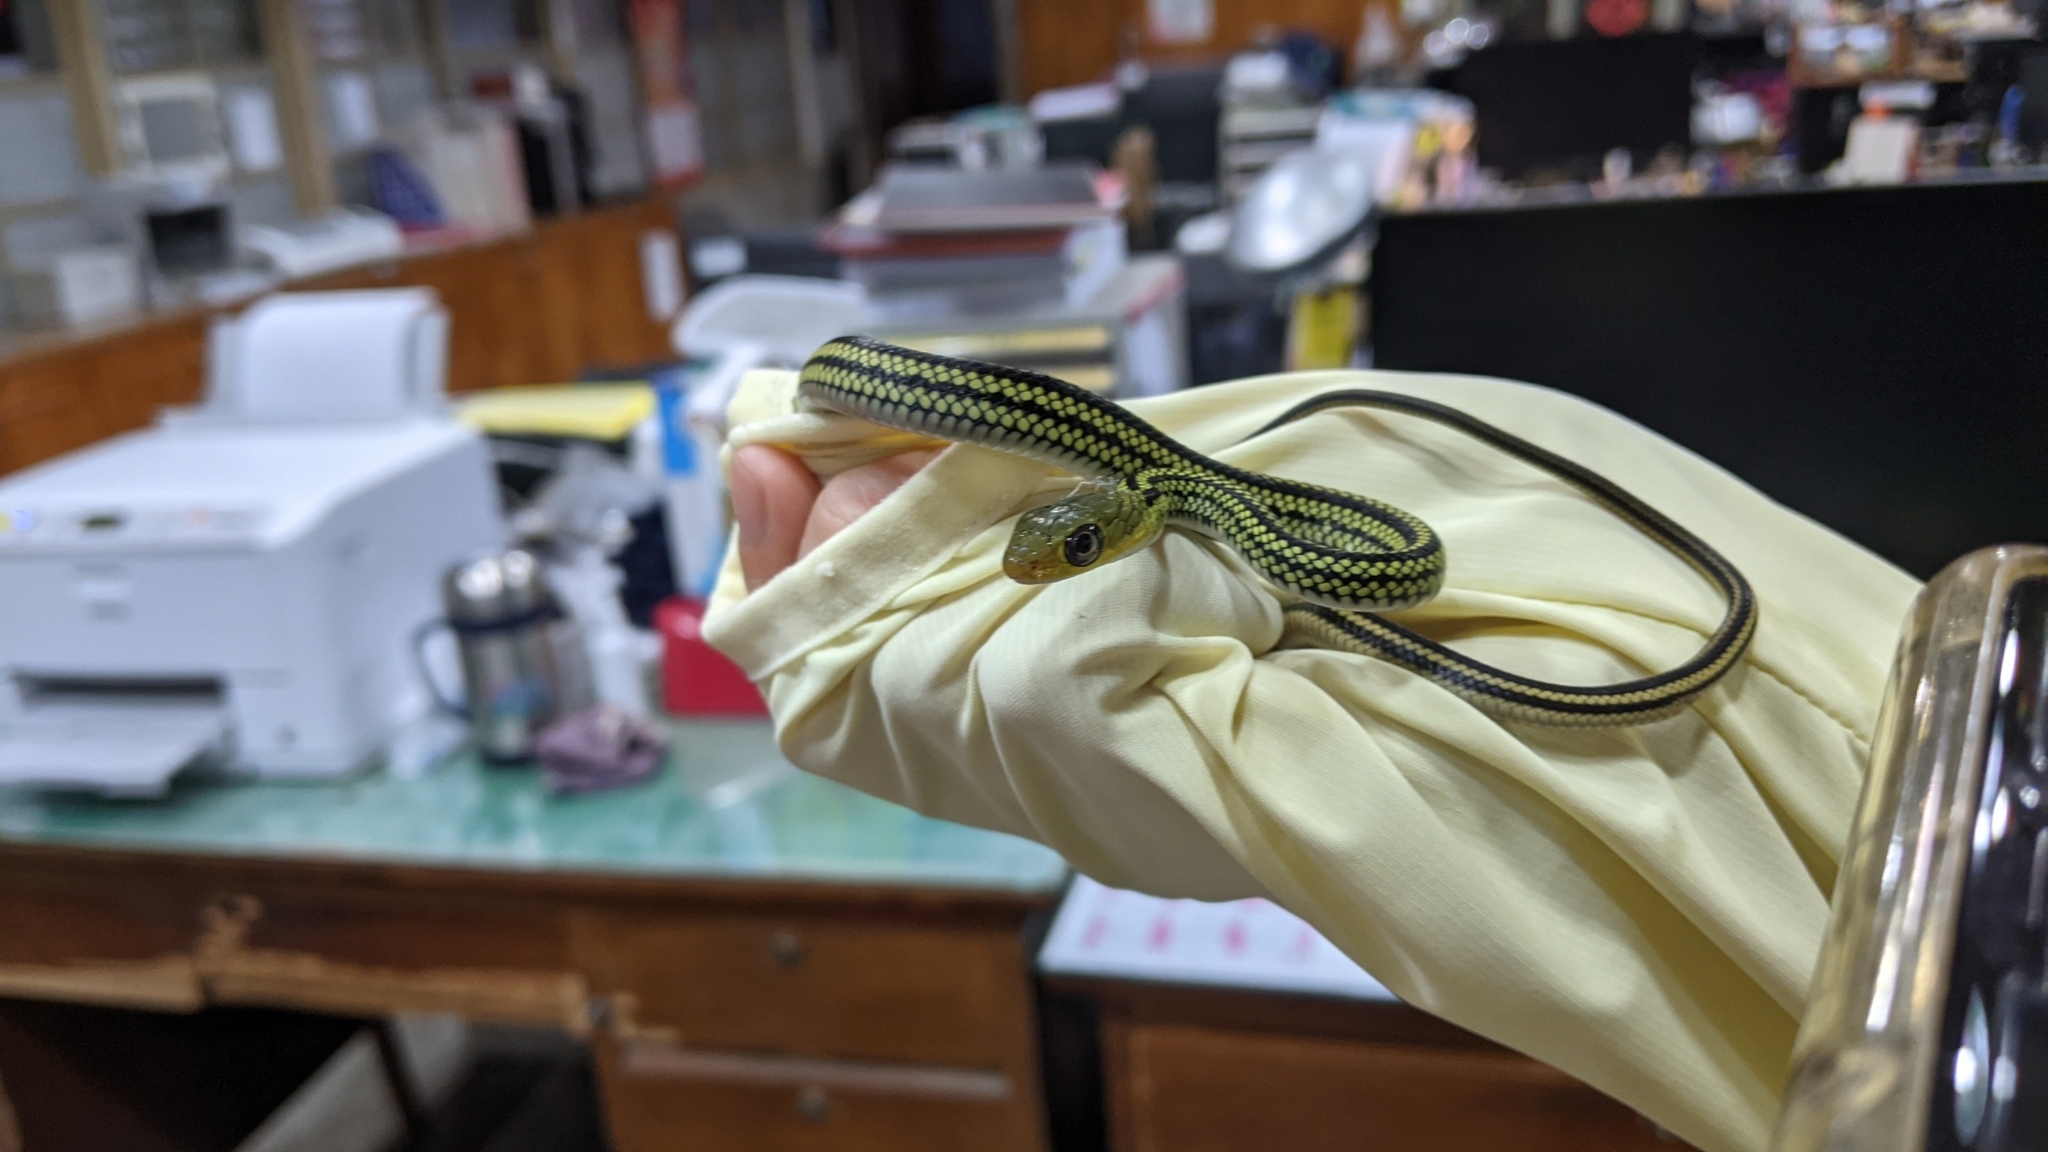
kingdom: Animalia
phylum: Chordata
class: Squamata
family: Colubridae
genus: Ptyas
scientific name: Ptyas dhumnades
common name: Black-striped rat snake
